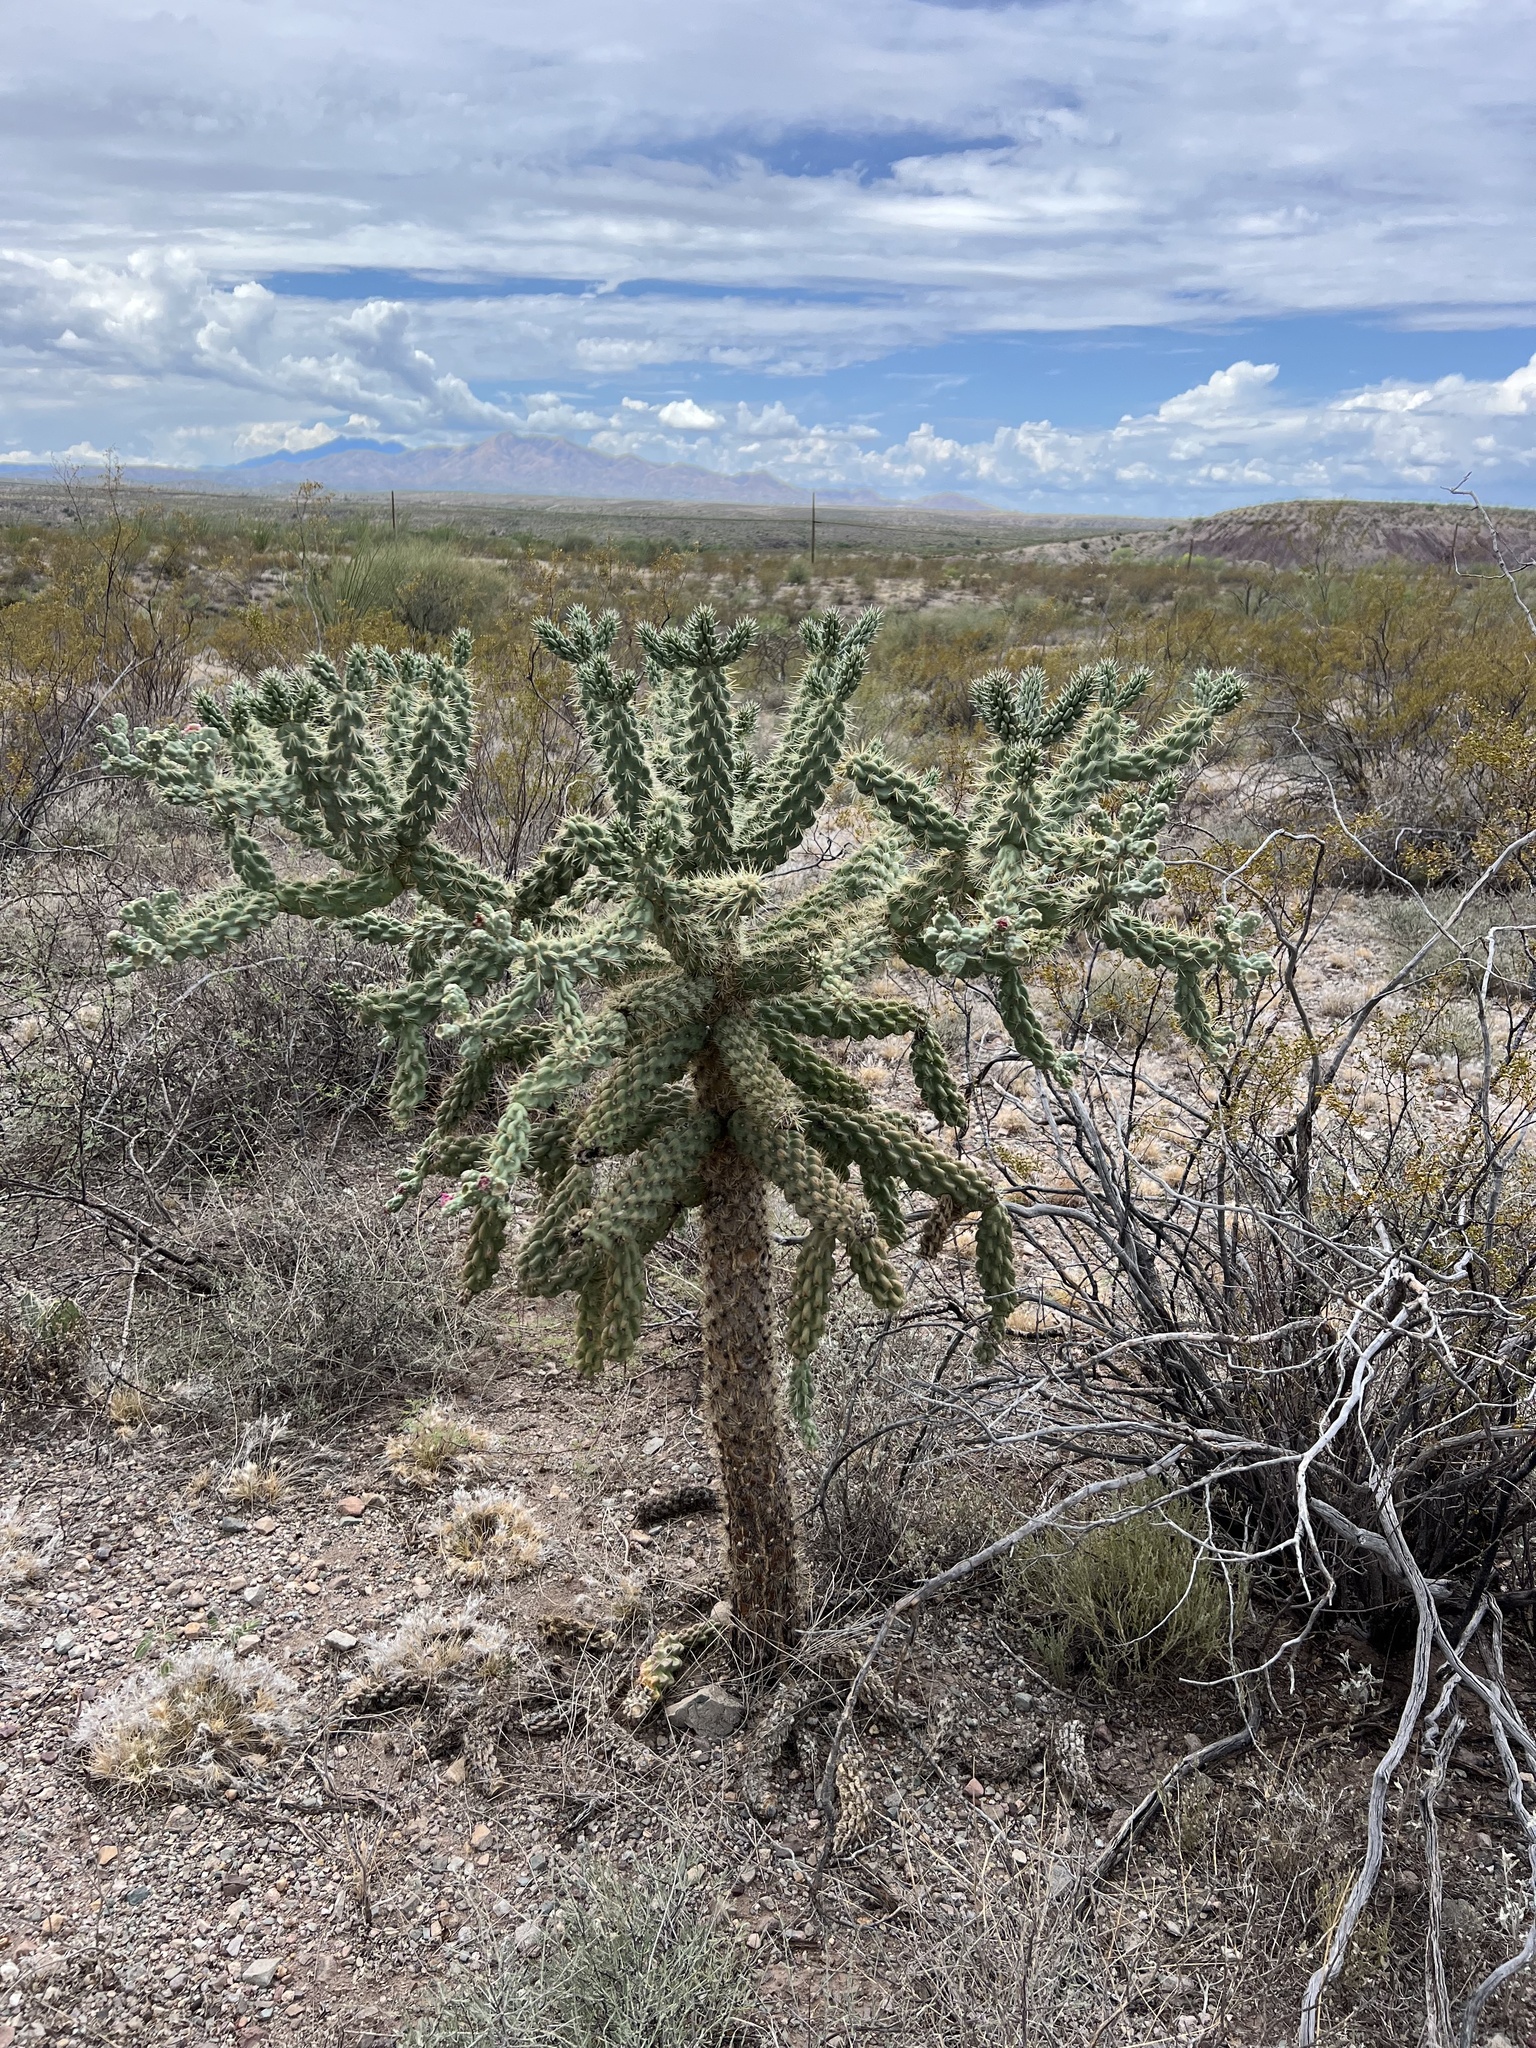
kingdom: Plantae
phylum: Tracheophyta
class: Magnoliopsida
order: Caryophyllales
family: Cactaceae
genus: Cylindropuntia
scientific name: Cylindropuntia fulgida
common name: Jumping cholla
